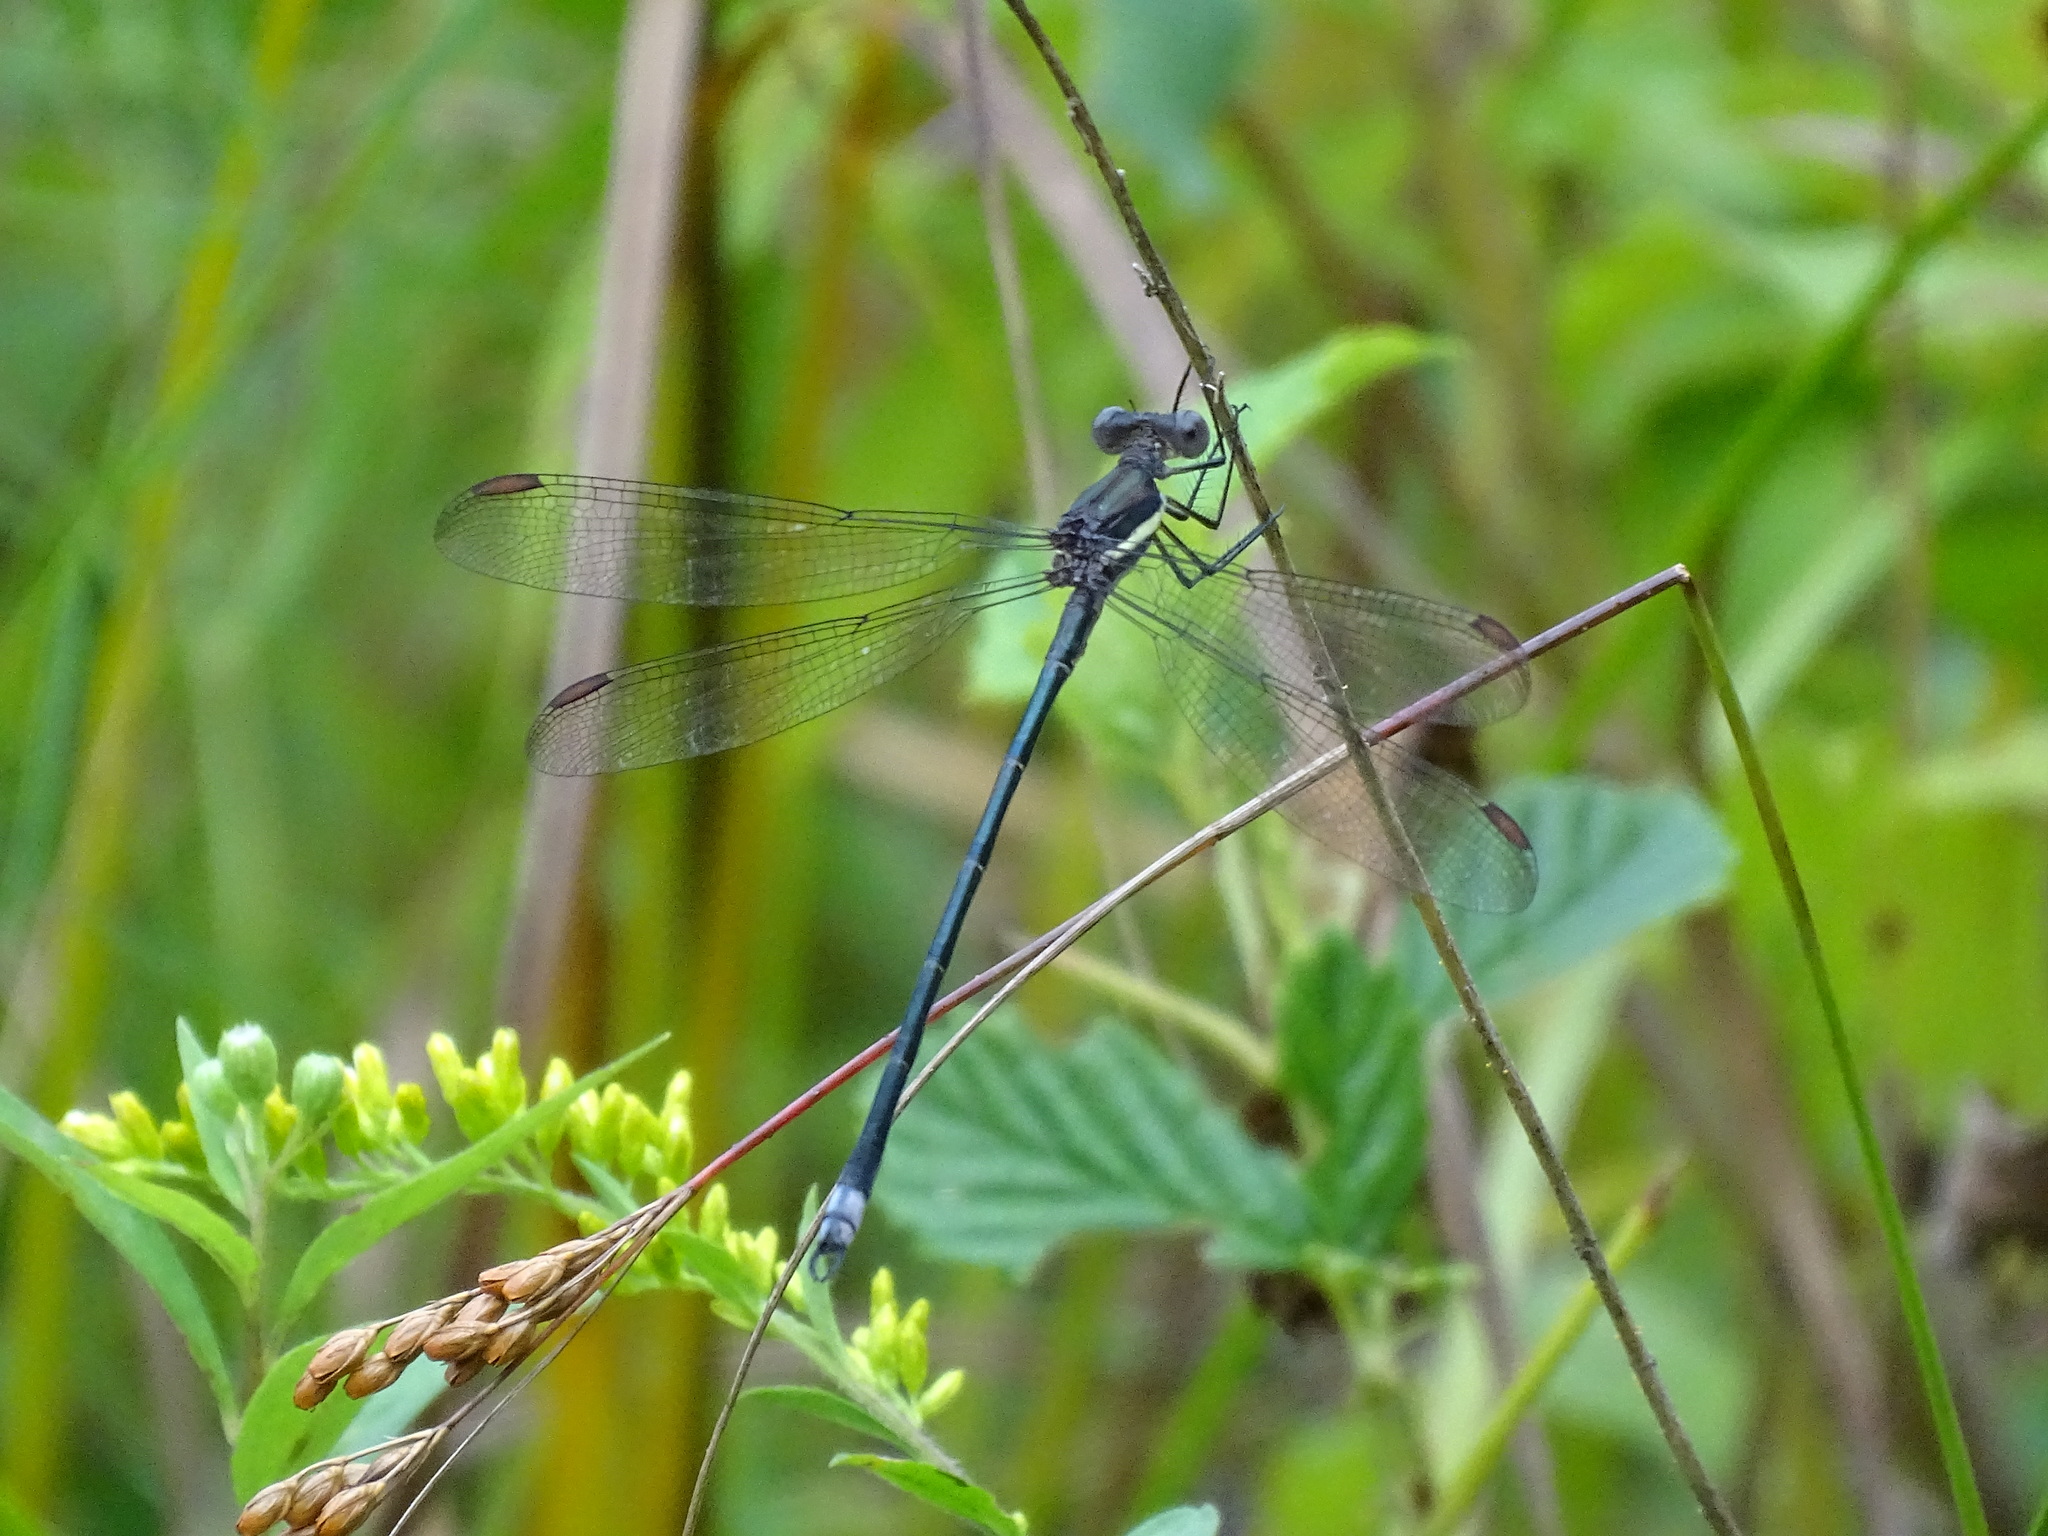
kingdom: Animalia
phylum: Arthropoda
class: Insecta
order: Odonata
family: Lestidae
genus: Archilestes
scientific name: Archilestes grandis
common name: Great spreadwing
